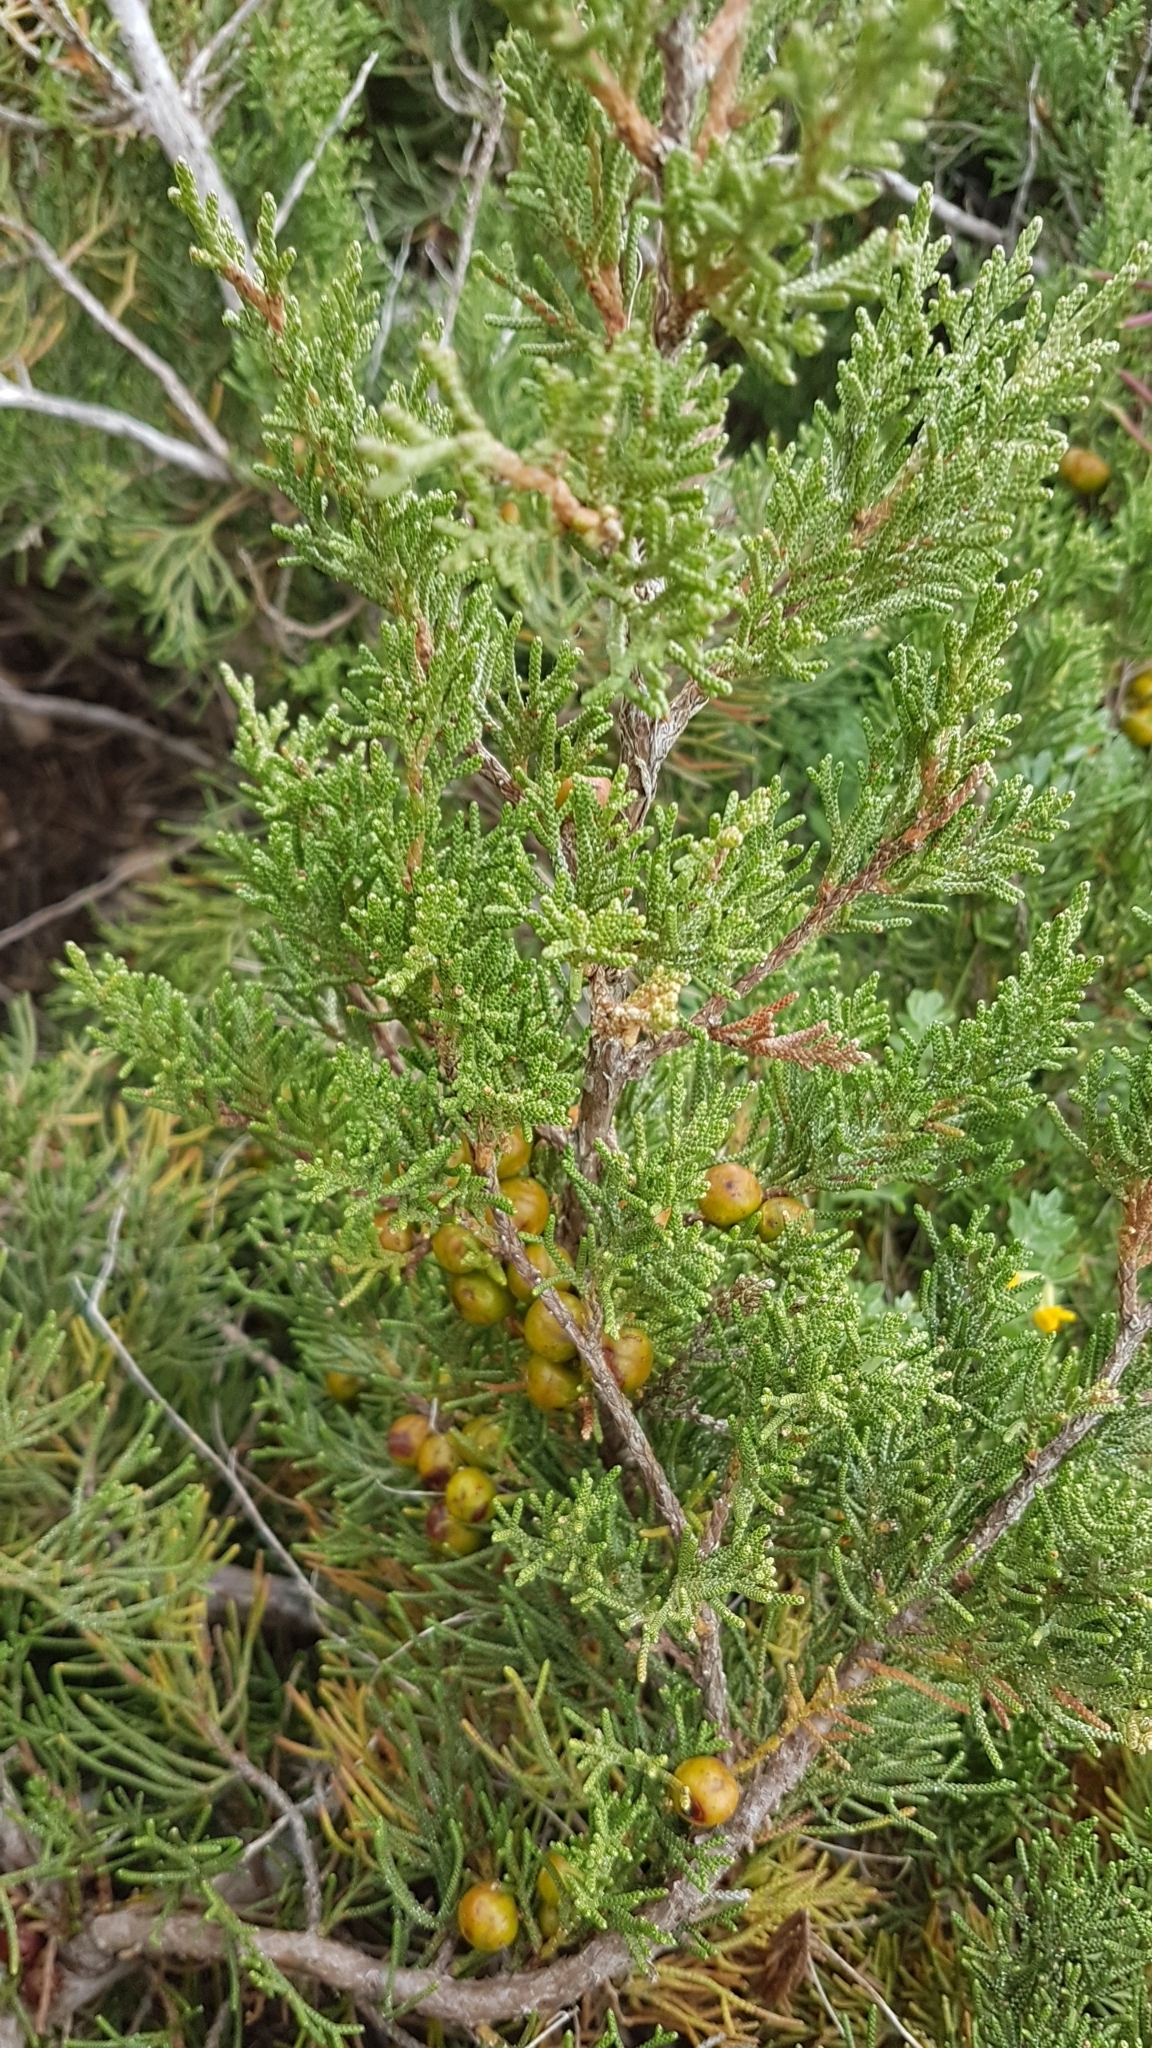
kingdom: Plantae
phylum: Tracheophyta
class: Pinopsida
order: Pinales
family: Cupressaceae
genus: Juniperus
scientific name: Juniperus phoenicea
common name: Phoenician juniper
